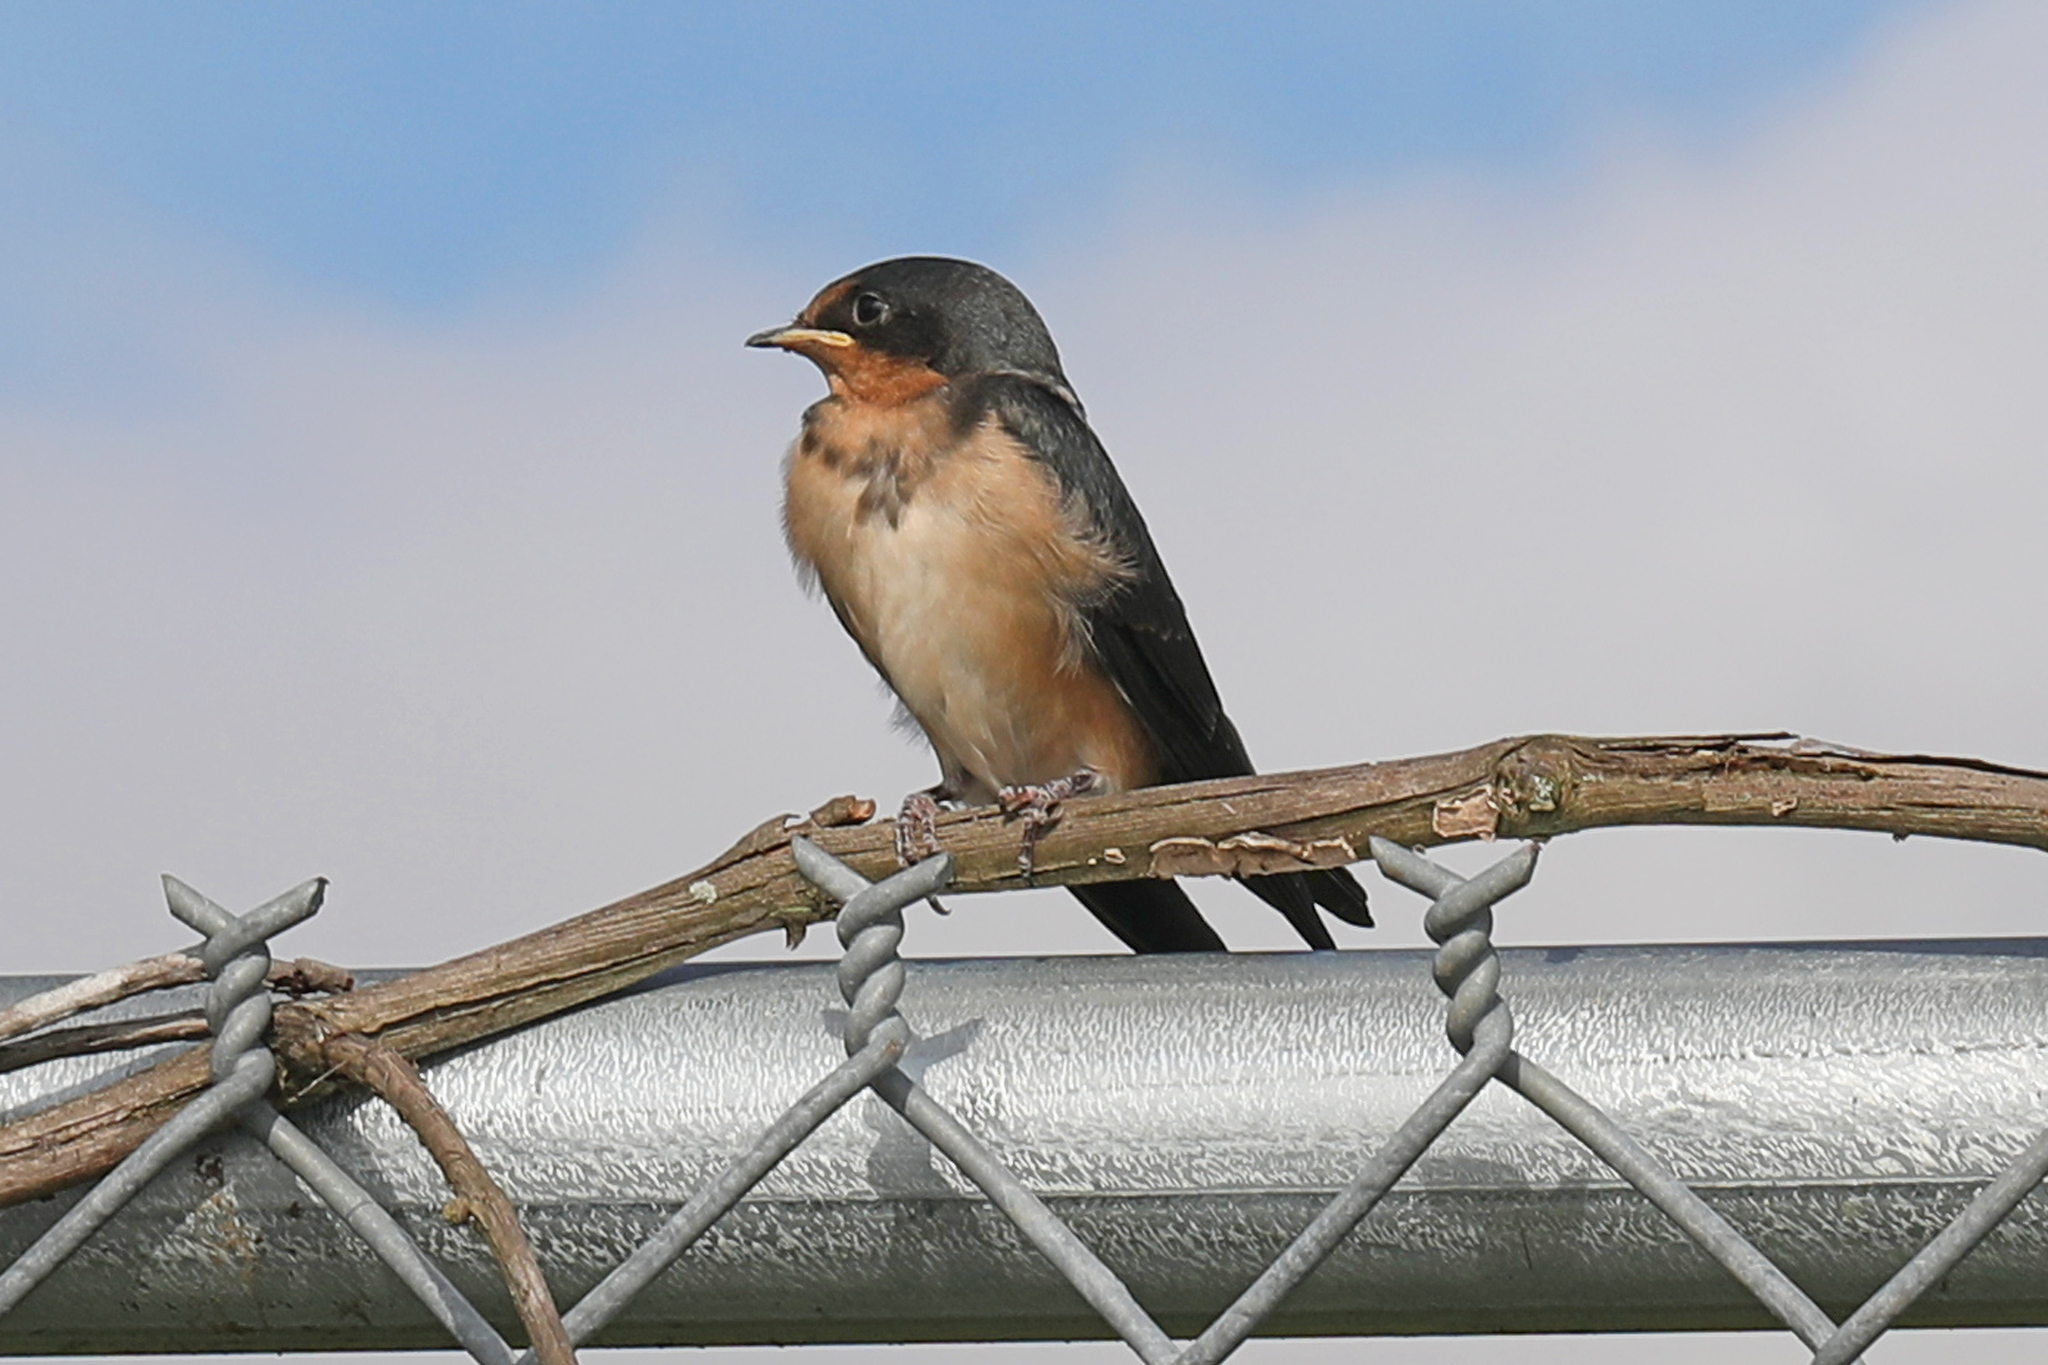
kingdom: Animalia
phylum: Chordata
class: Aves
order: Passeriformes
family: Hirundinidae
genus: Hirundo
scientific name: Hirundo rustica
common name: Barn swallow
